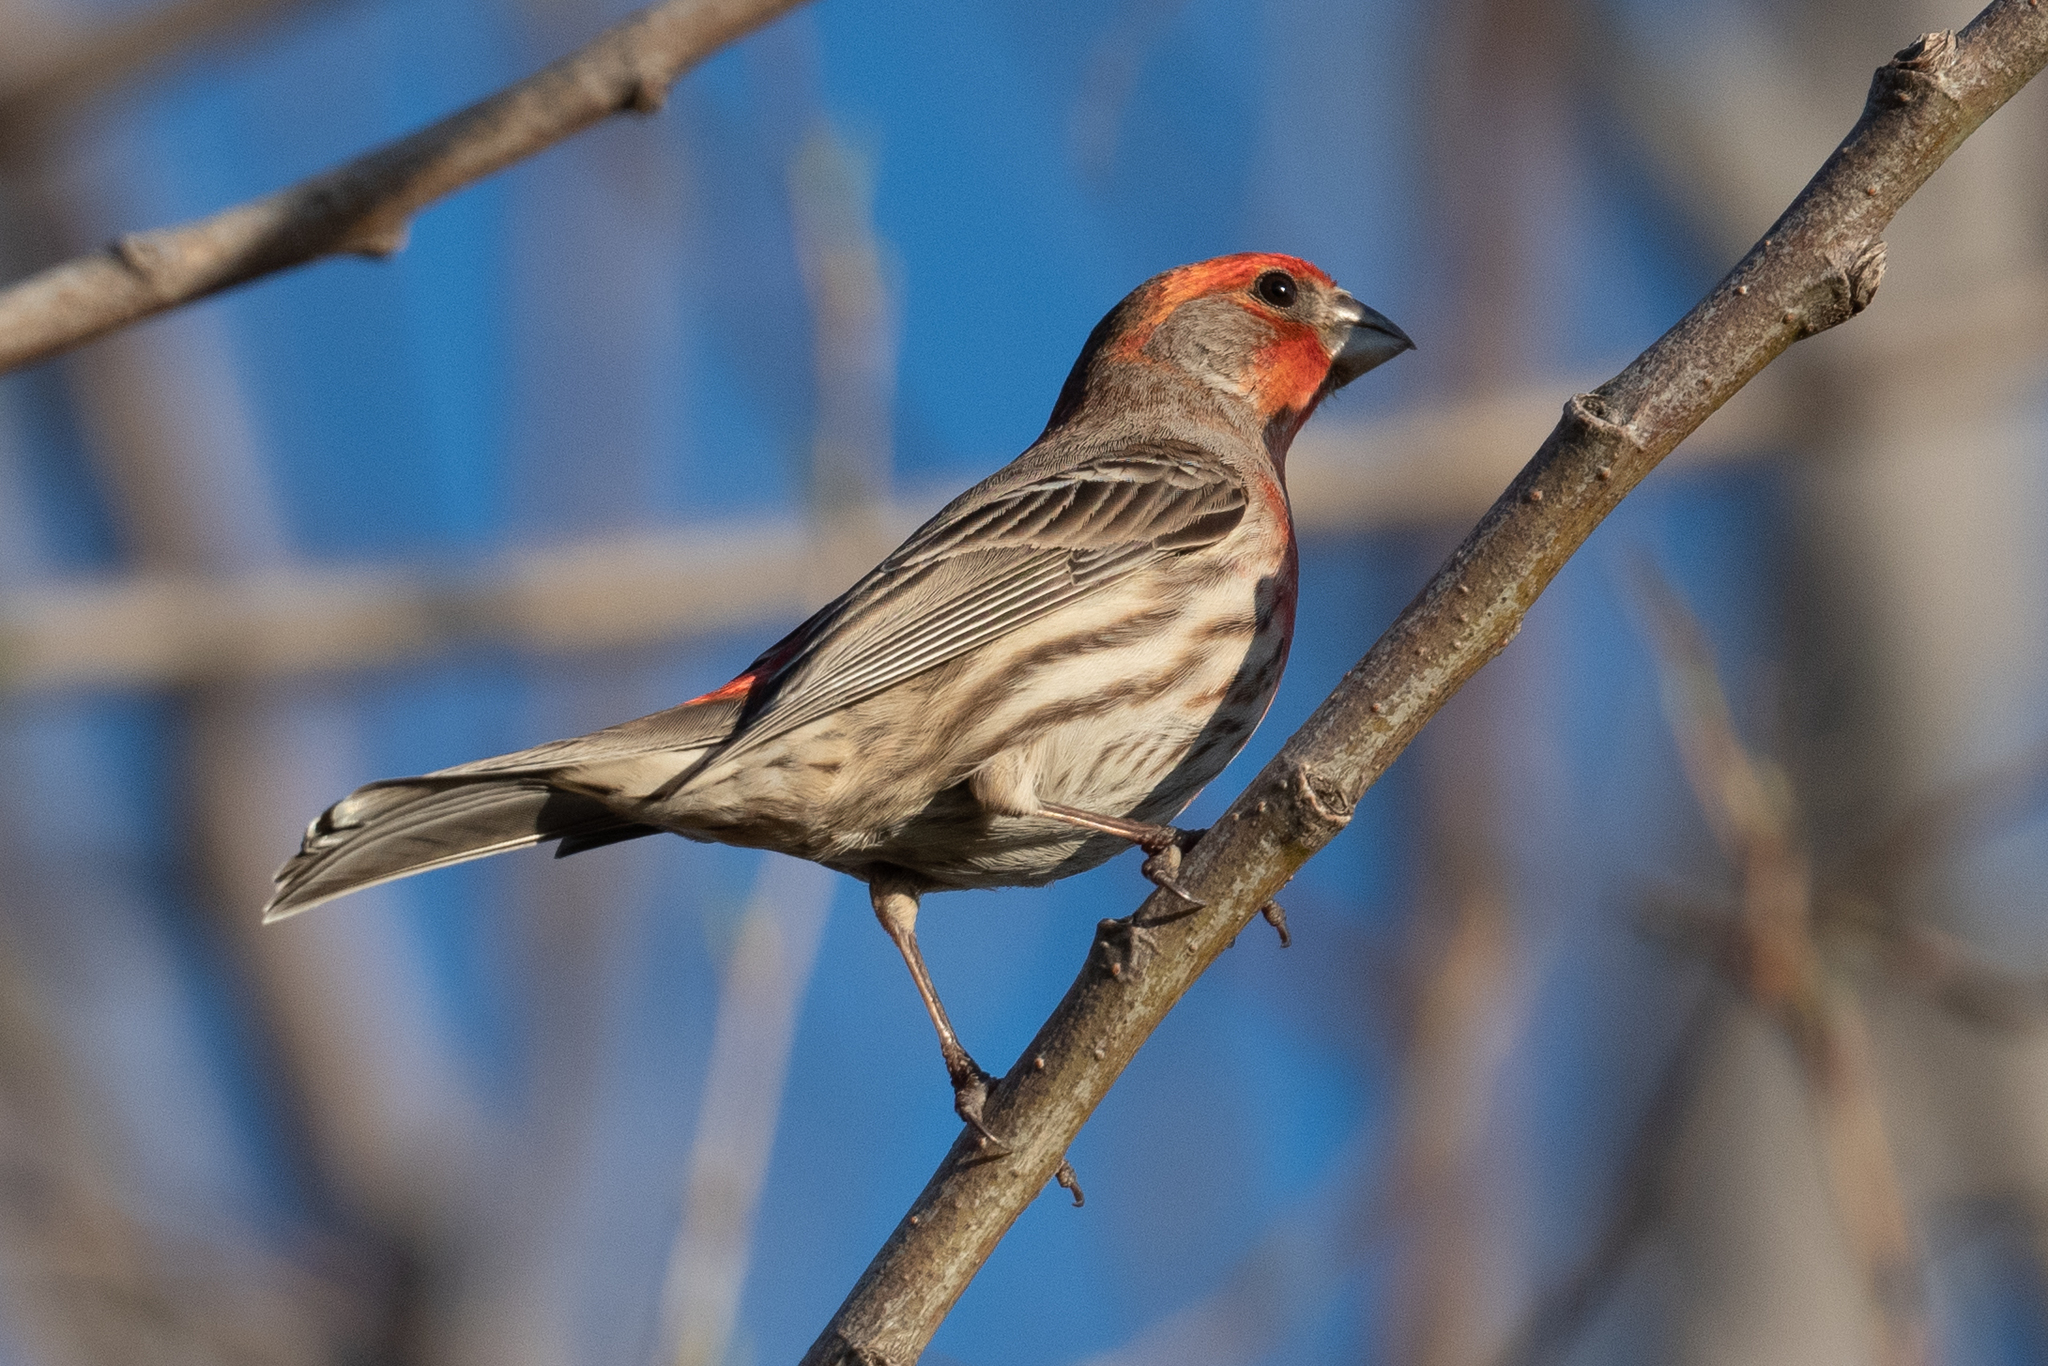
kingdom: Animalia
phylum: Chordata
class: Aves
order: Passeriformes
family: Fringillidae
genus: Haemorhous
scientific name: Haemorhous mexicanus
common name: House finch
